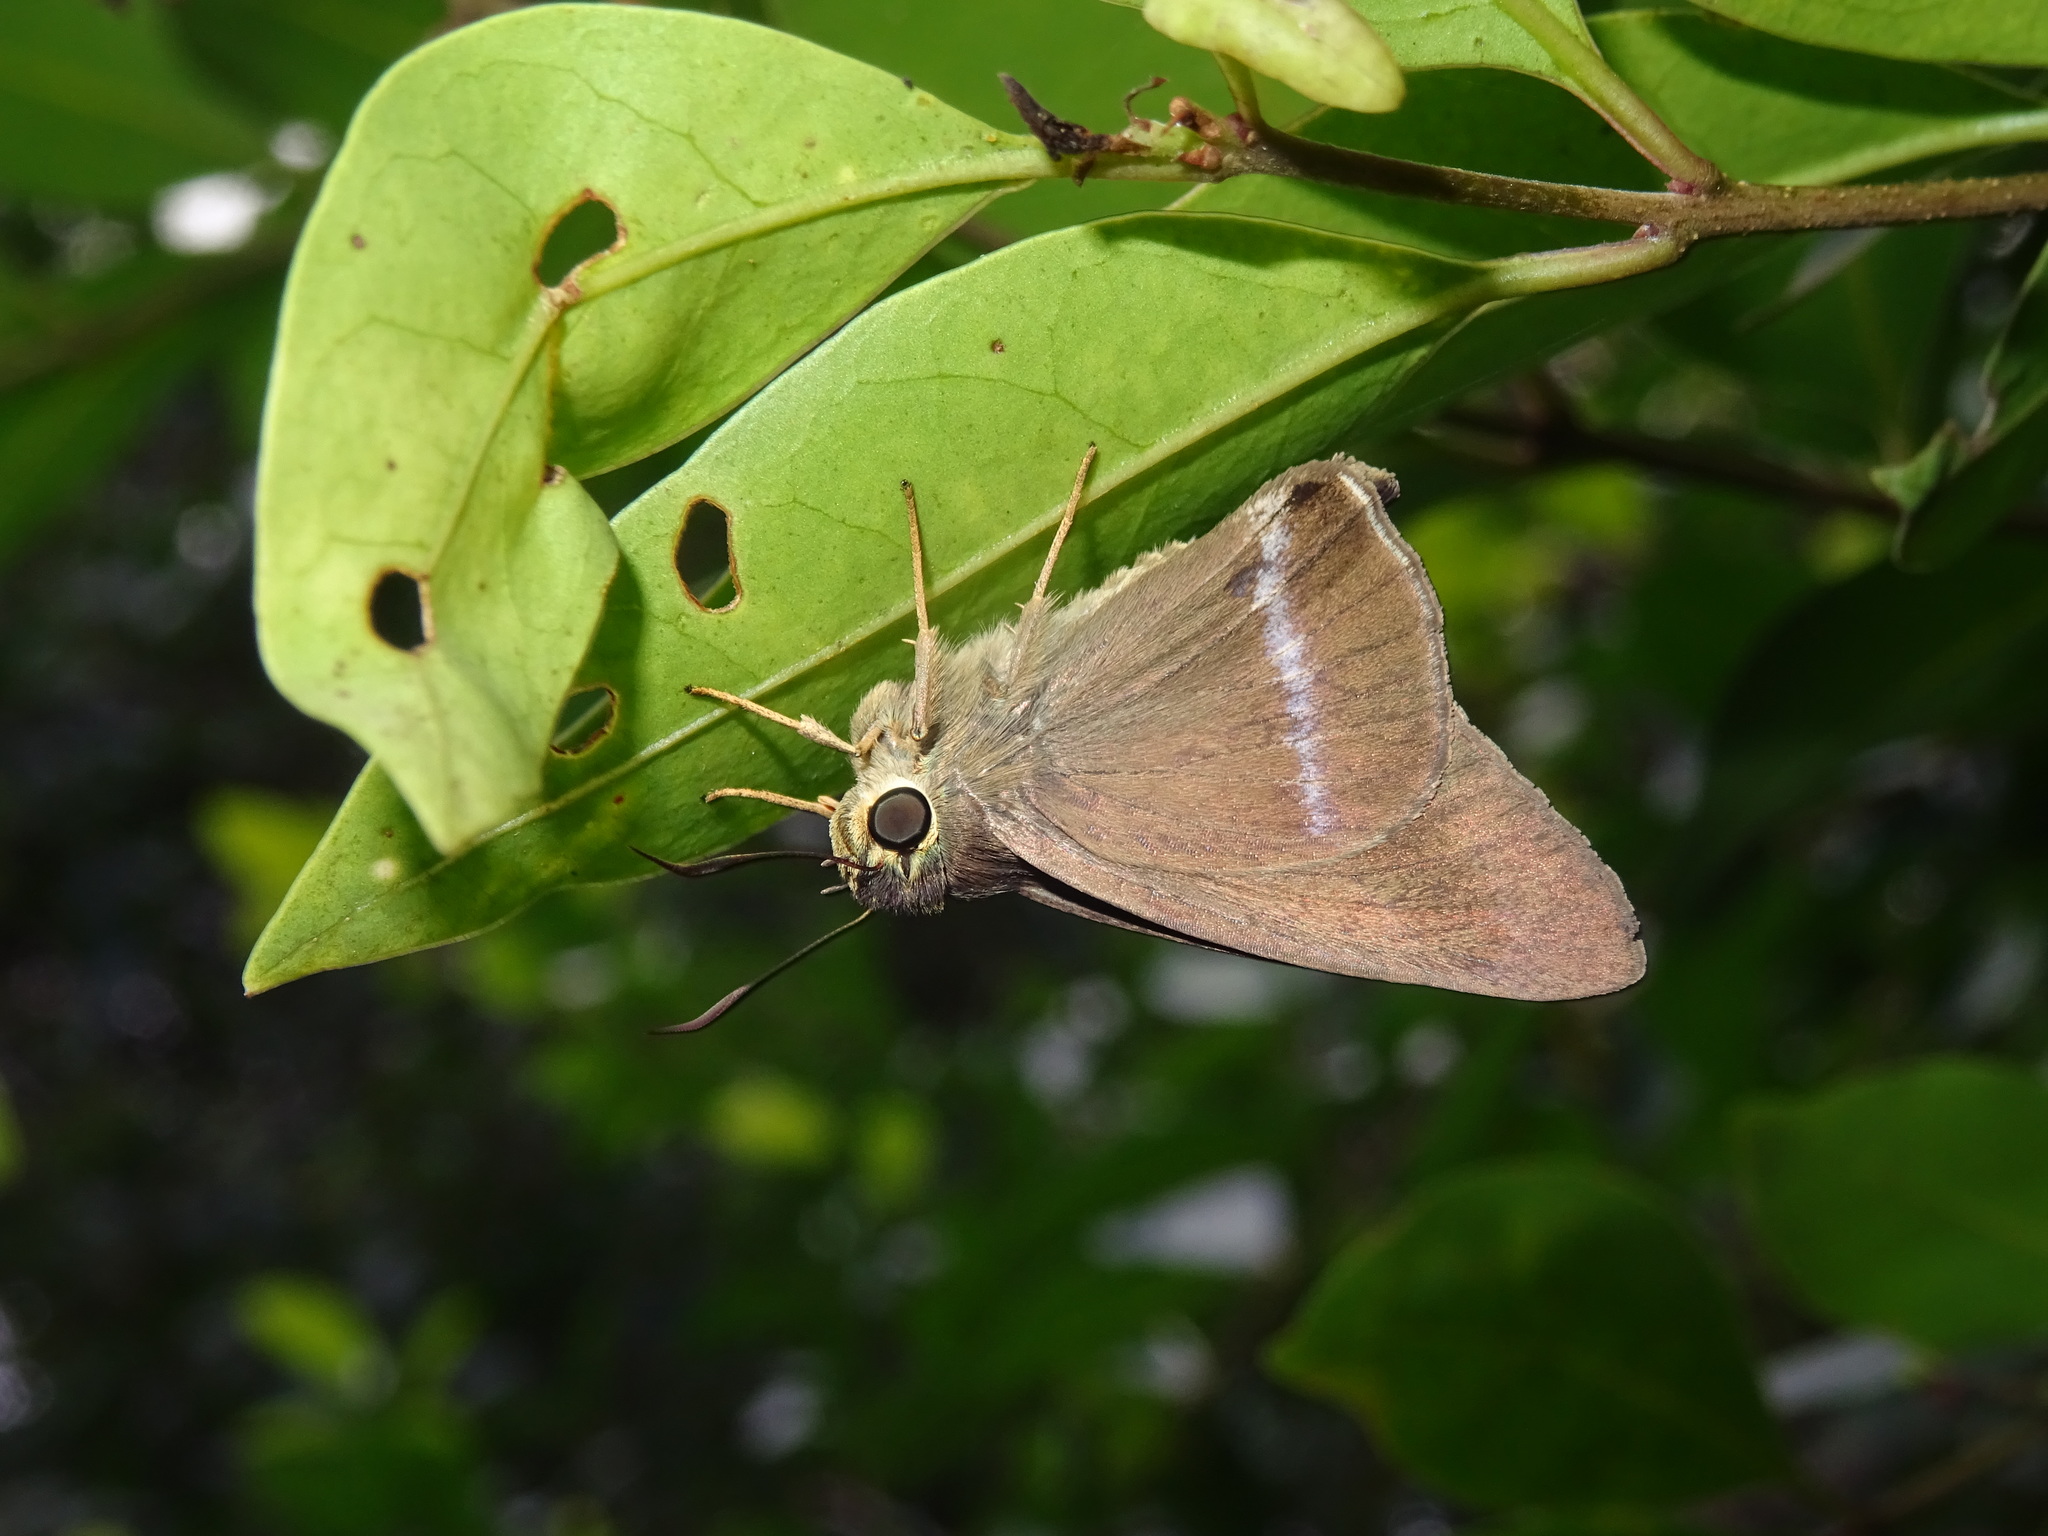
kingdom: Animalia
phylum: Arthropoda
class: Insecta
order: Lepidoptera
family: Hesperiidae
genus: Hasora
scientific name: Hasora chromus
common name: Common banded awl
